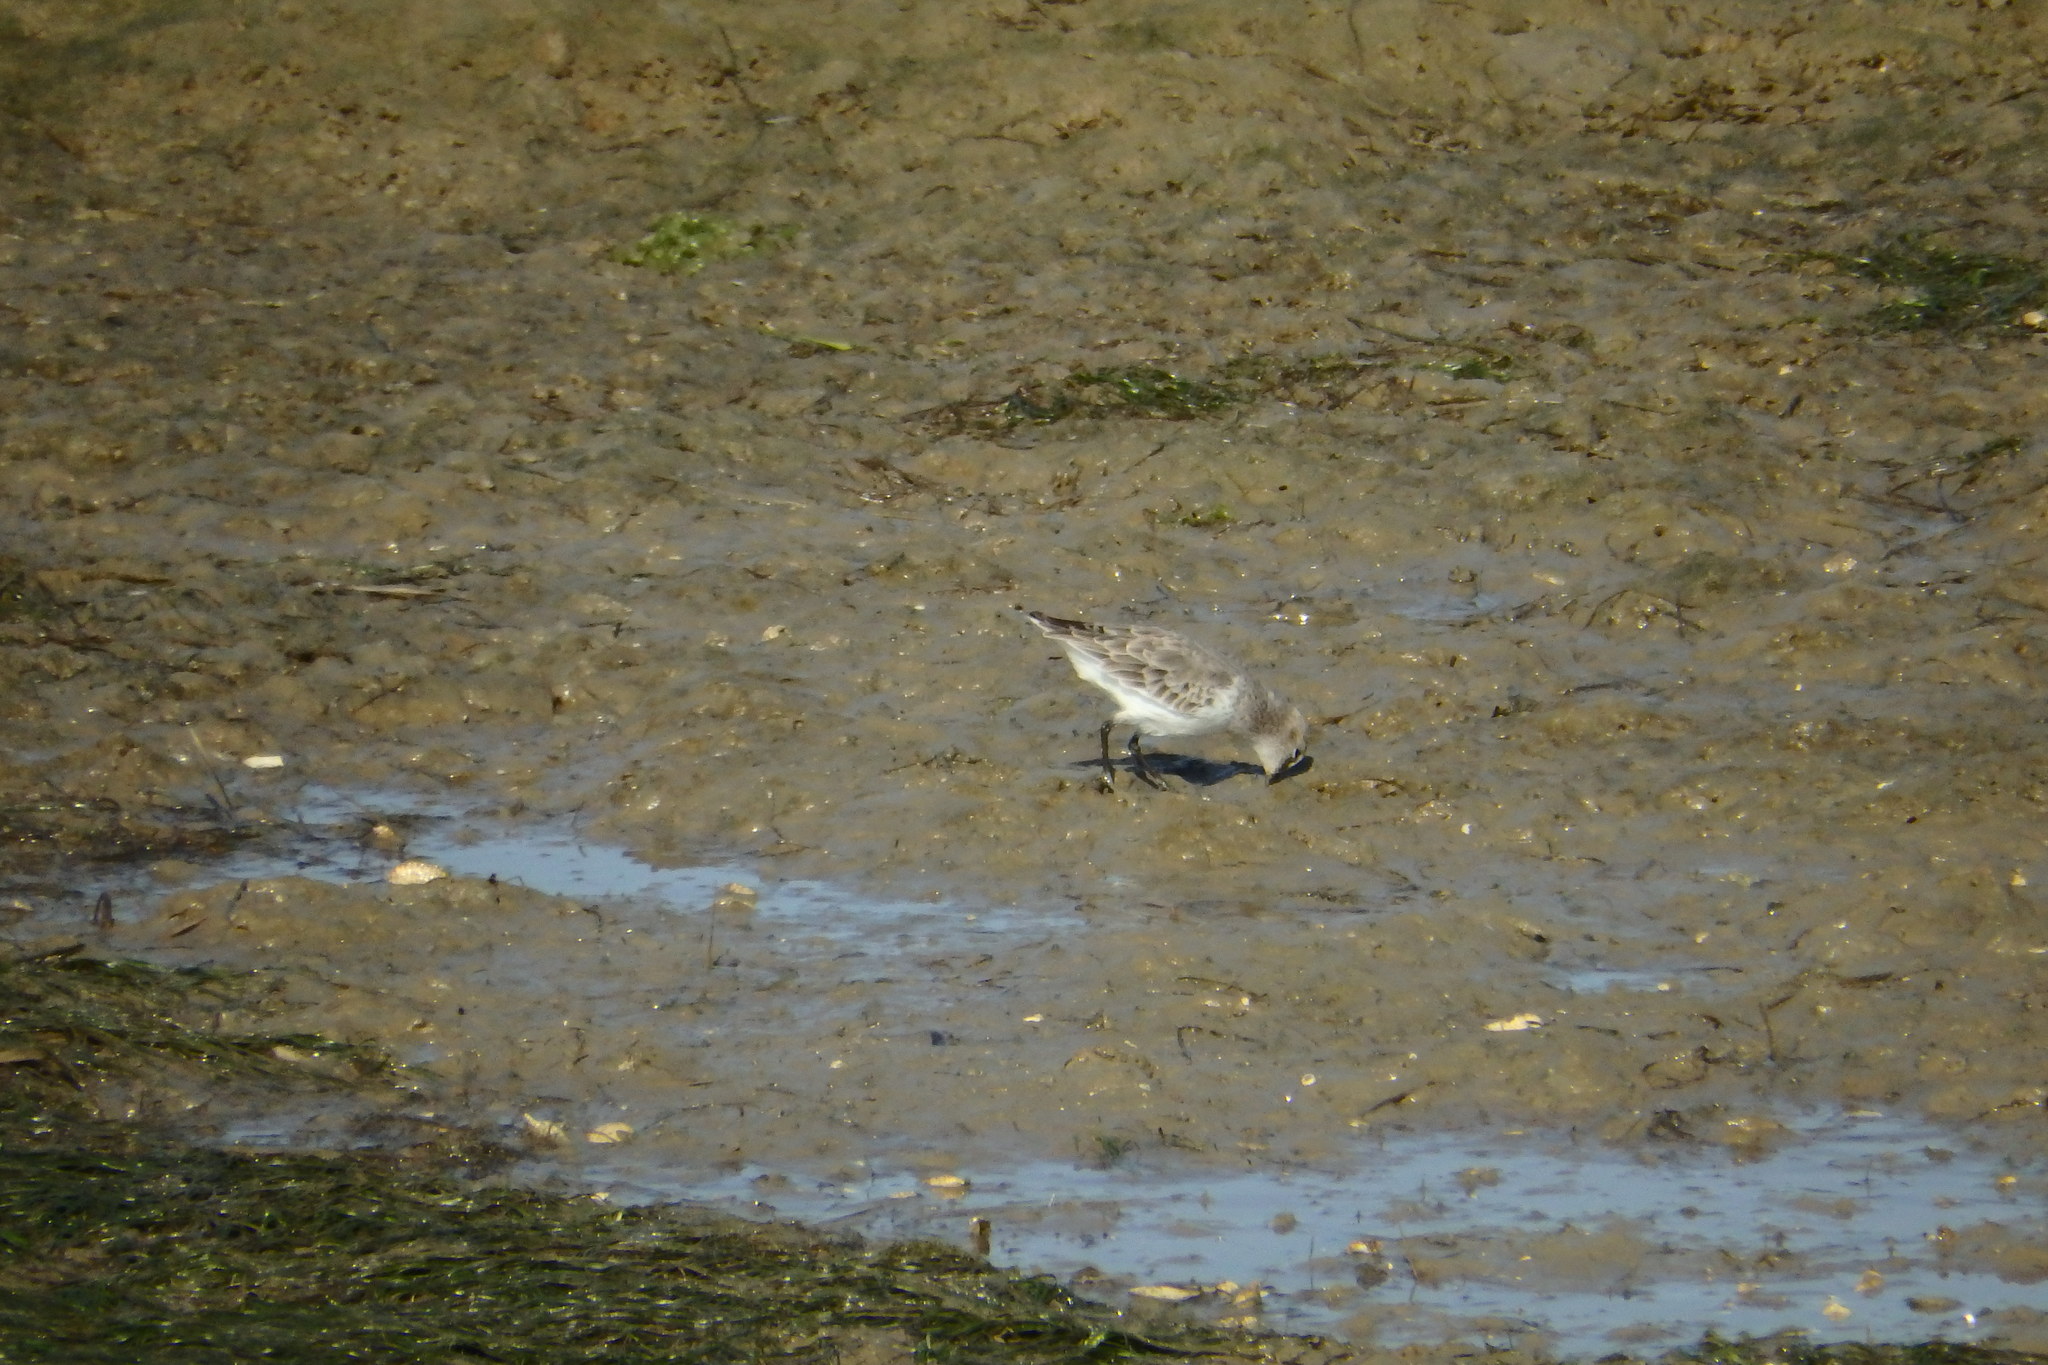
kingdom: Animalia
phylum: Chordata
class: Aves
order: Charadriiformes
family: Scolopacidae
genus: Calidris
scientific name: Calidris alpina
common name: Dunlin
